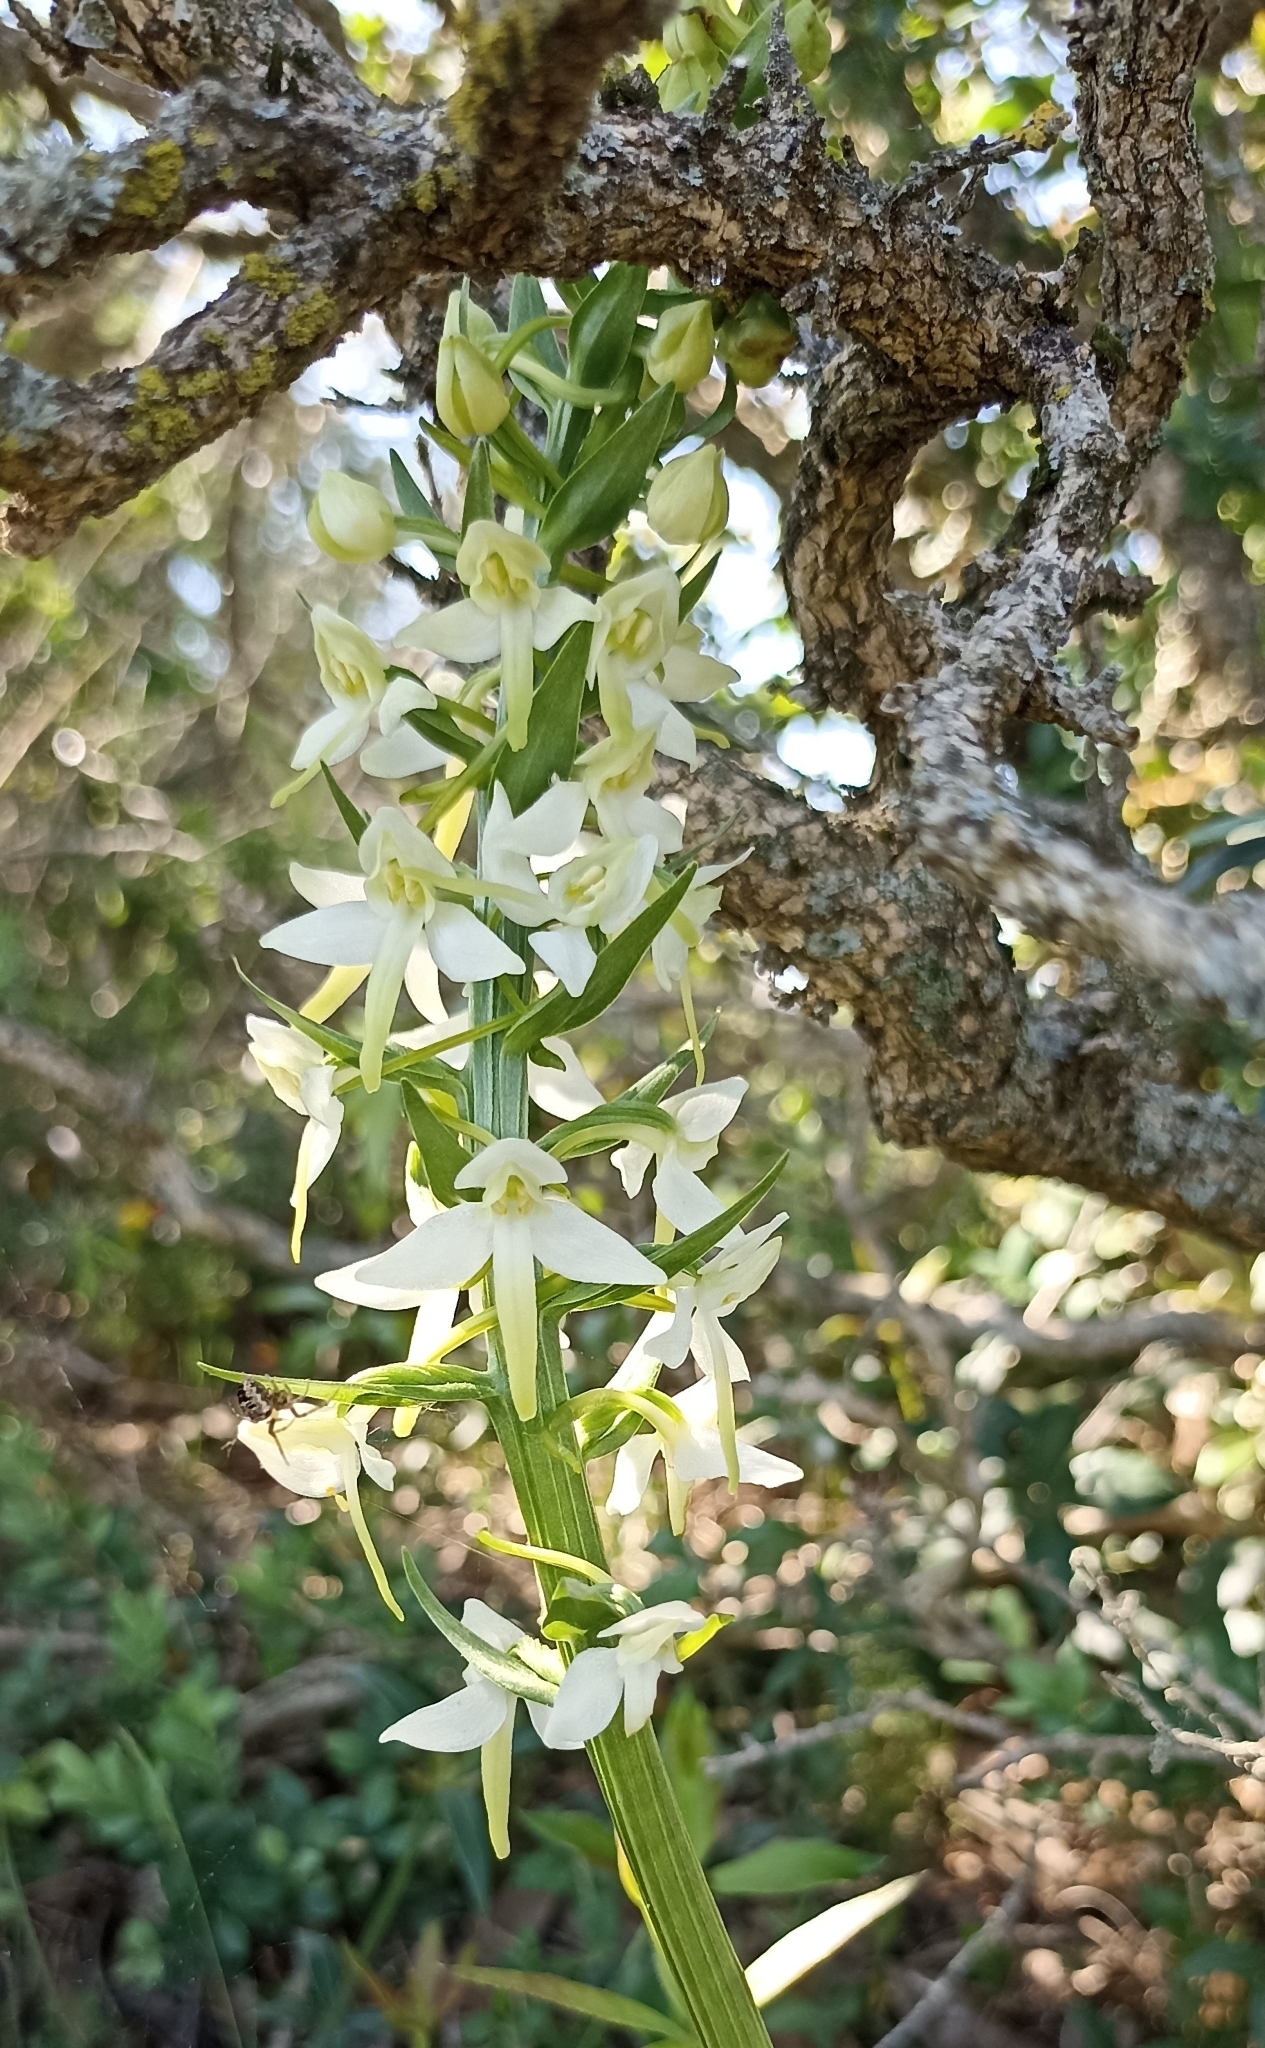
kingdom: Plantae
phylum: Tracheophyta
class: Liliopsida
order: Asparagales
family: Orchidaceae
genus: Platanthera
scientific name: Platanthera bifolia
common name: Lesser butterfly-orchid
